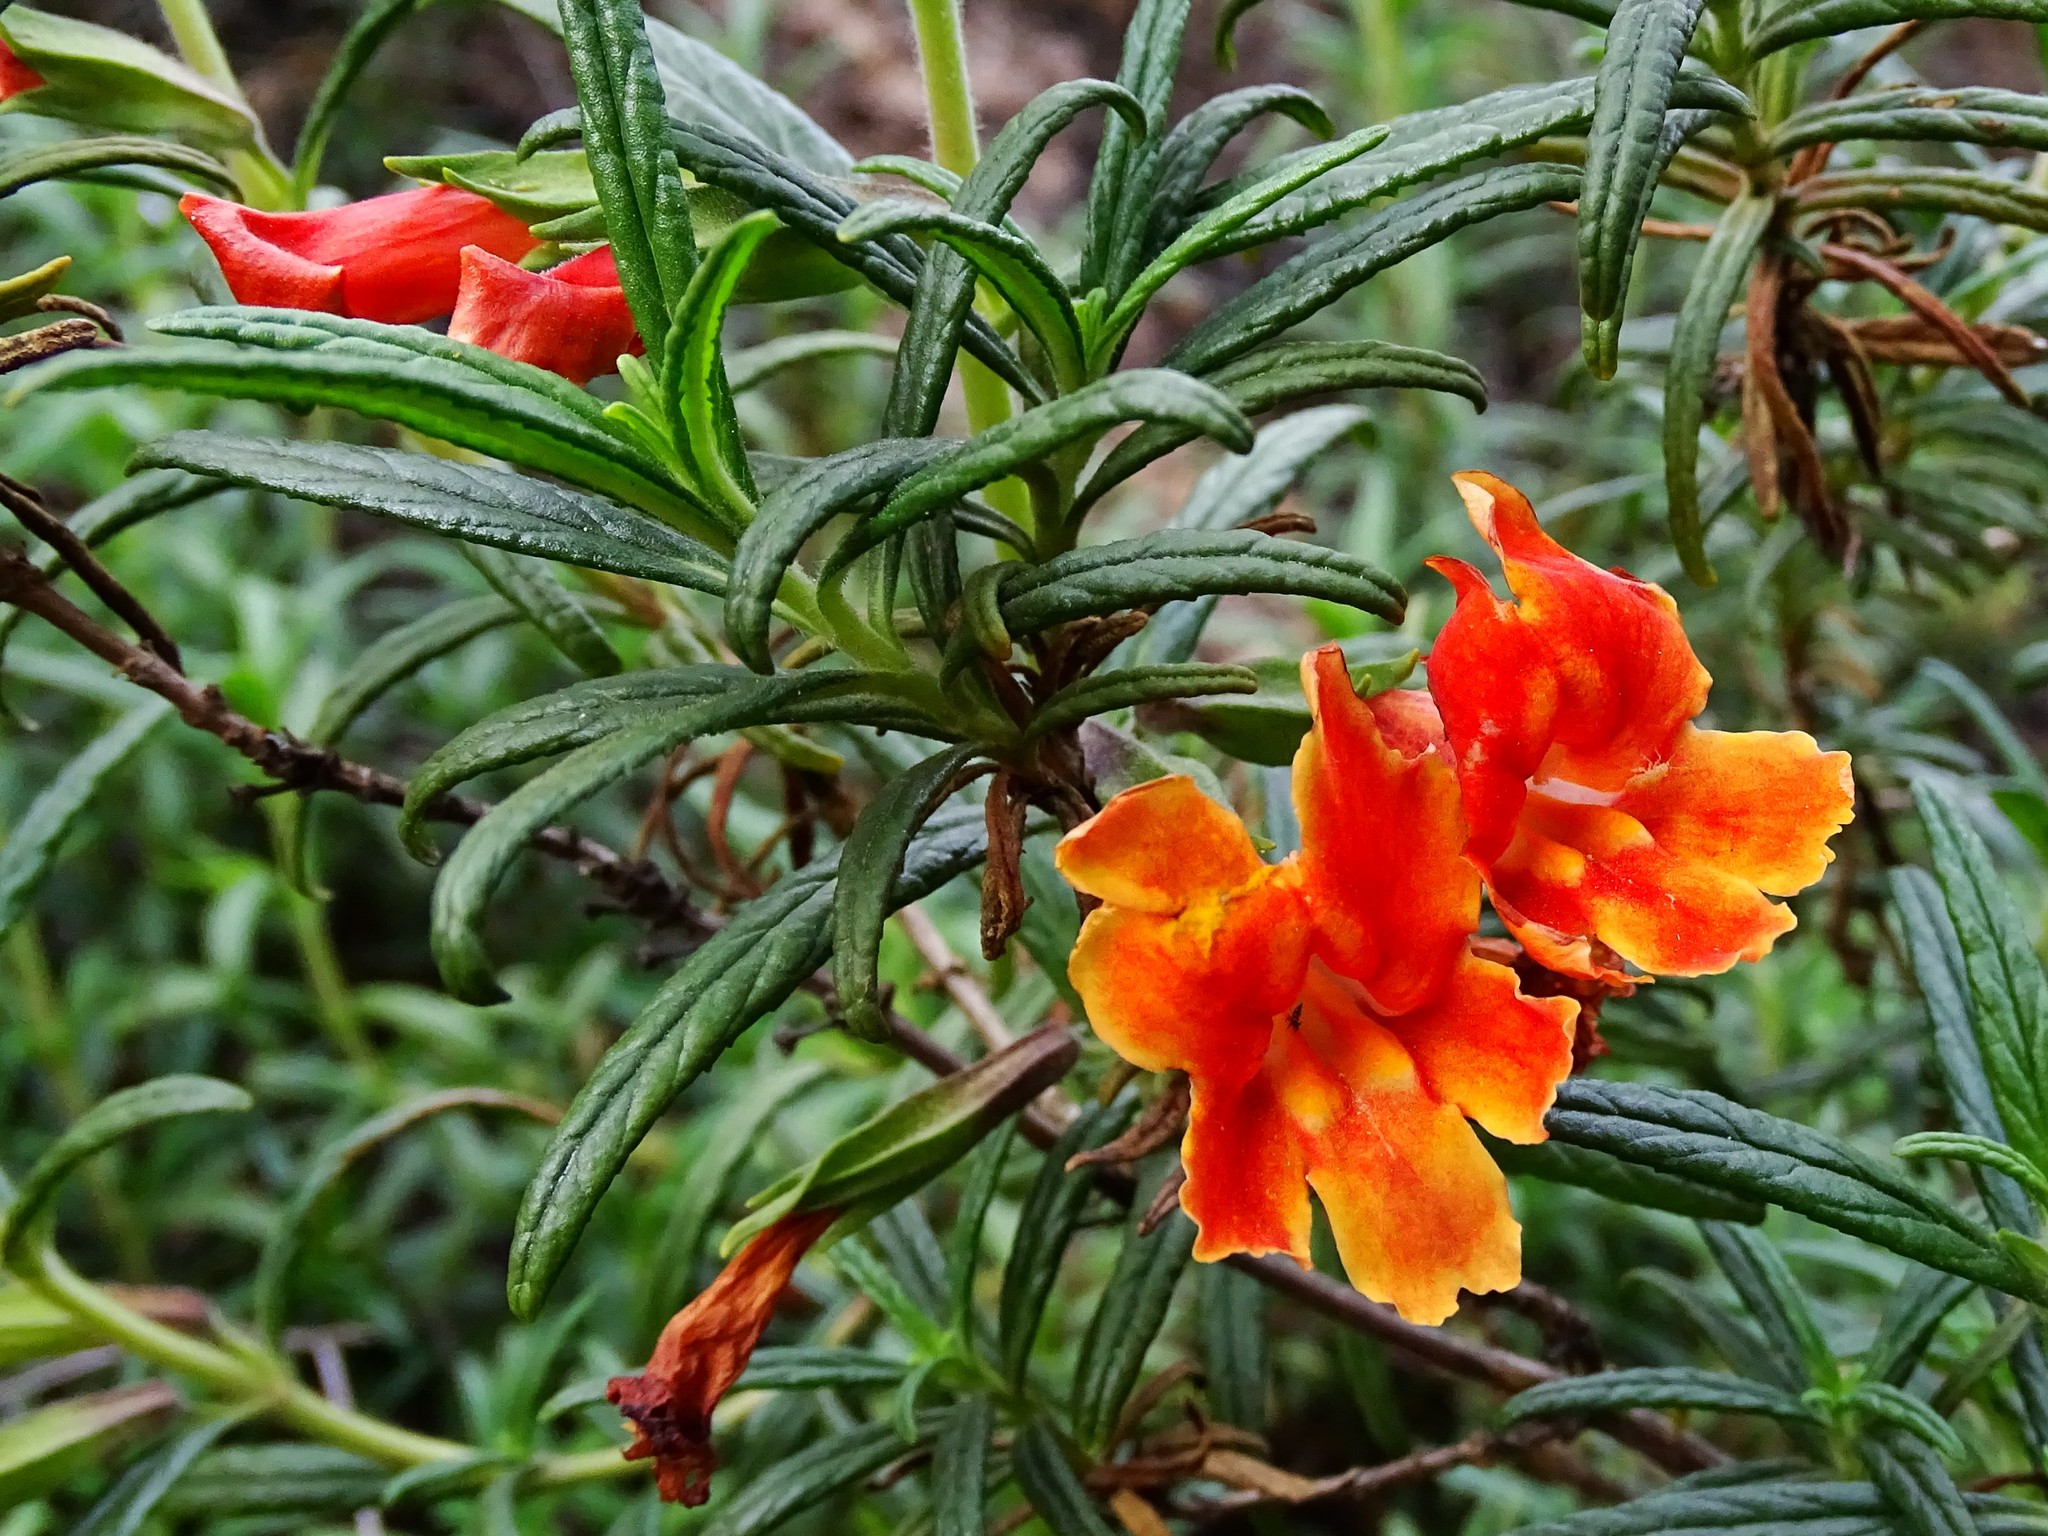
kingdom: Plantae
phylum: Tracheophyta
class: Magnoliopsida
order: Lamiales
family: Phrymaceae
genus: Diplacus
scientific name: Diplacus australis
